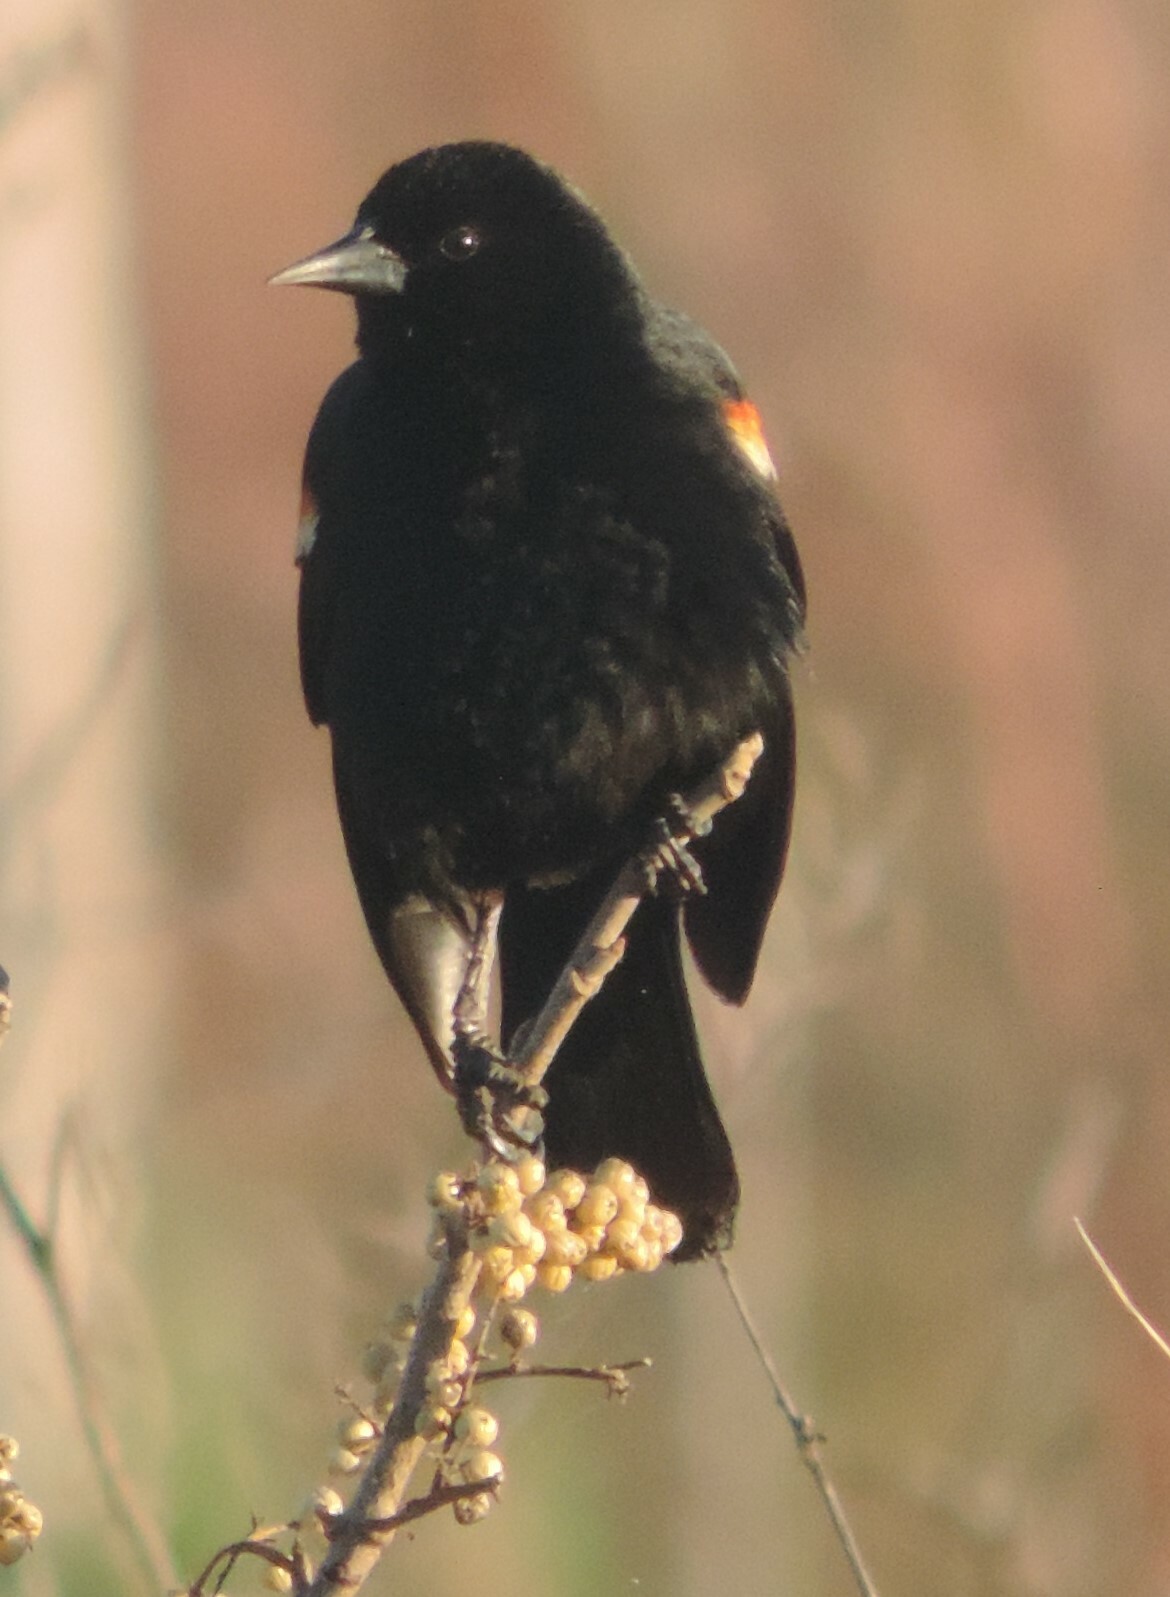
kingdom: Animalia
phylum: Chordata
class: Aves
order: Passeriformes
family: Icteridae
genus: Agelaius
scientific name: Agelaius phoeniceus
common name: Red-winged blackbird
